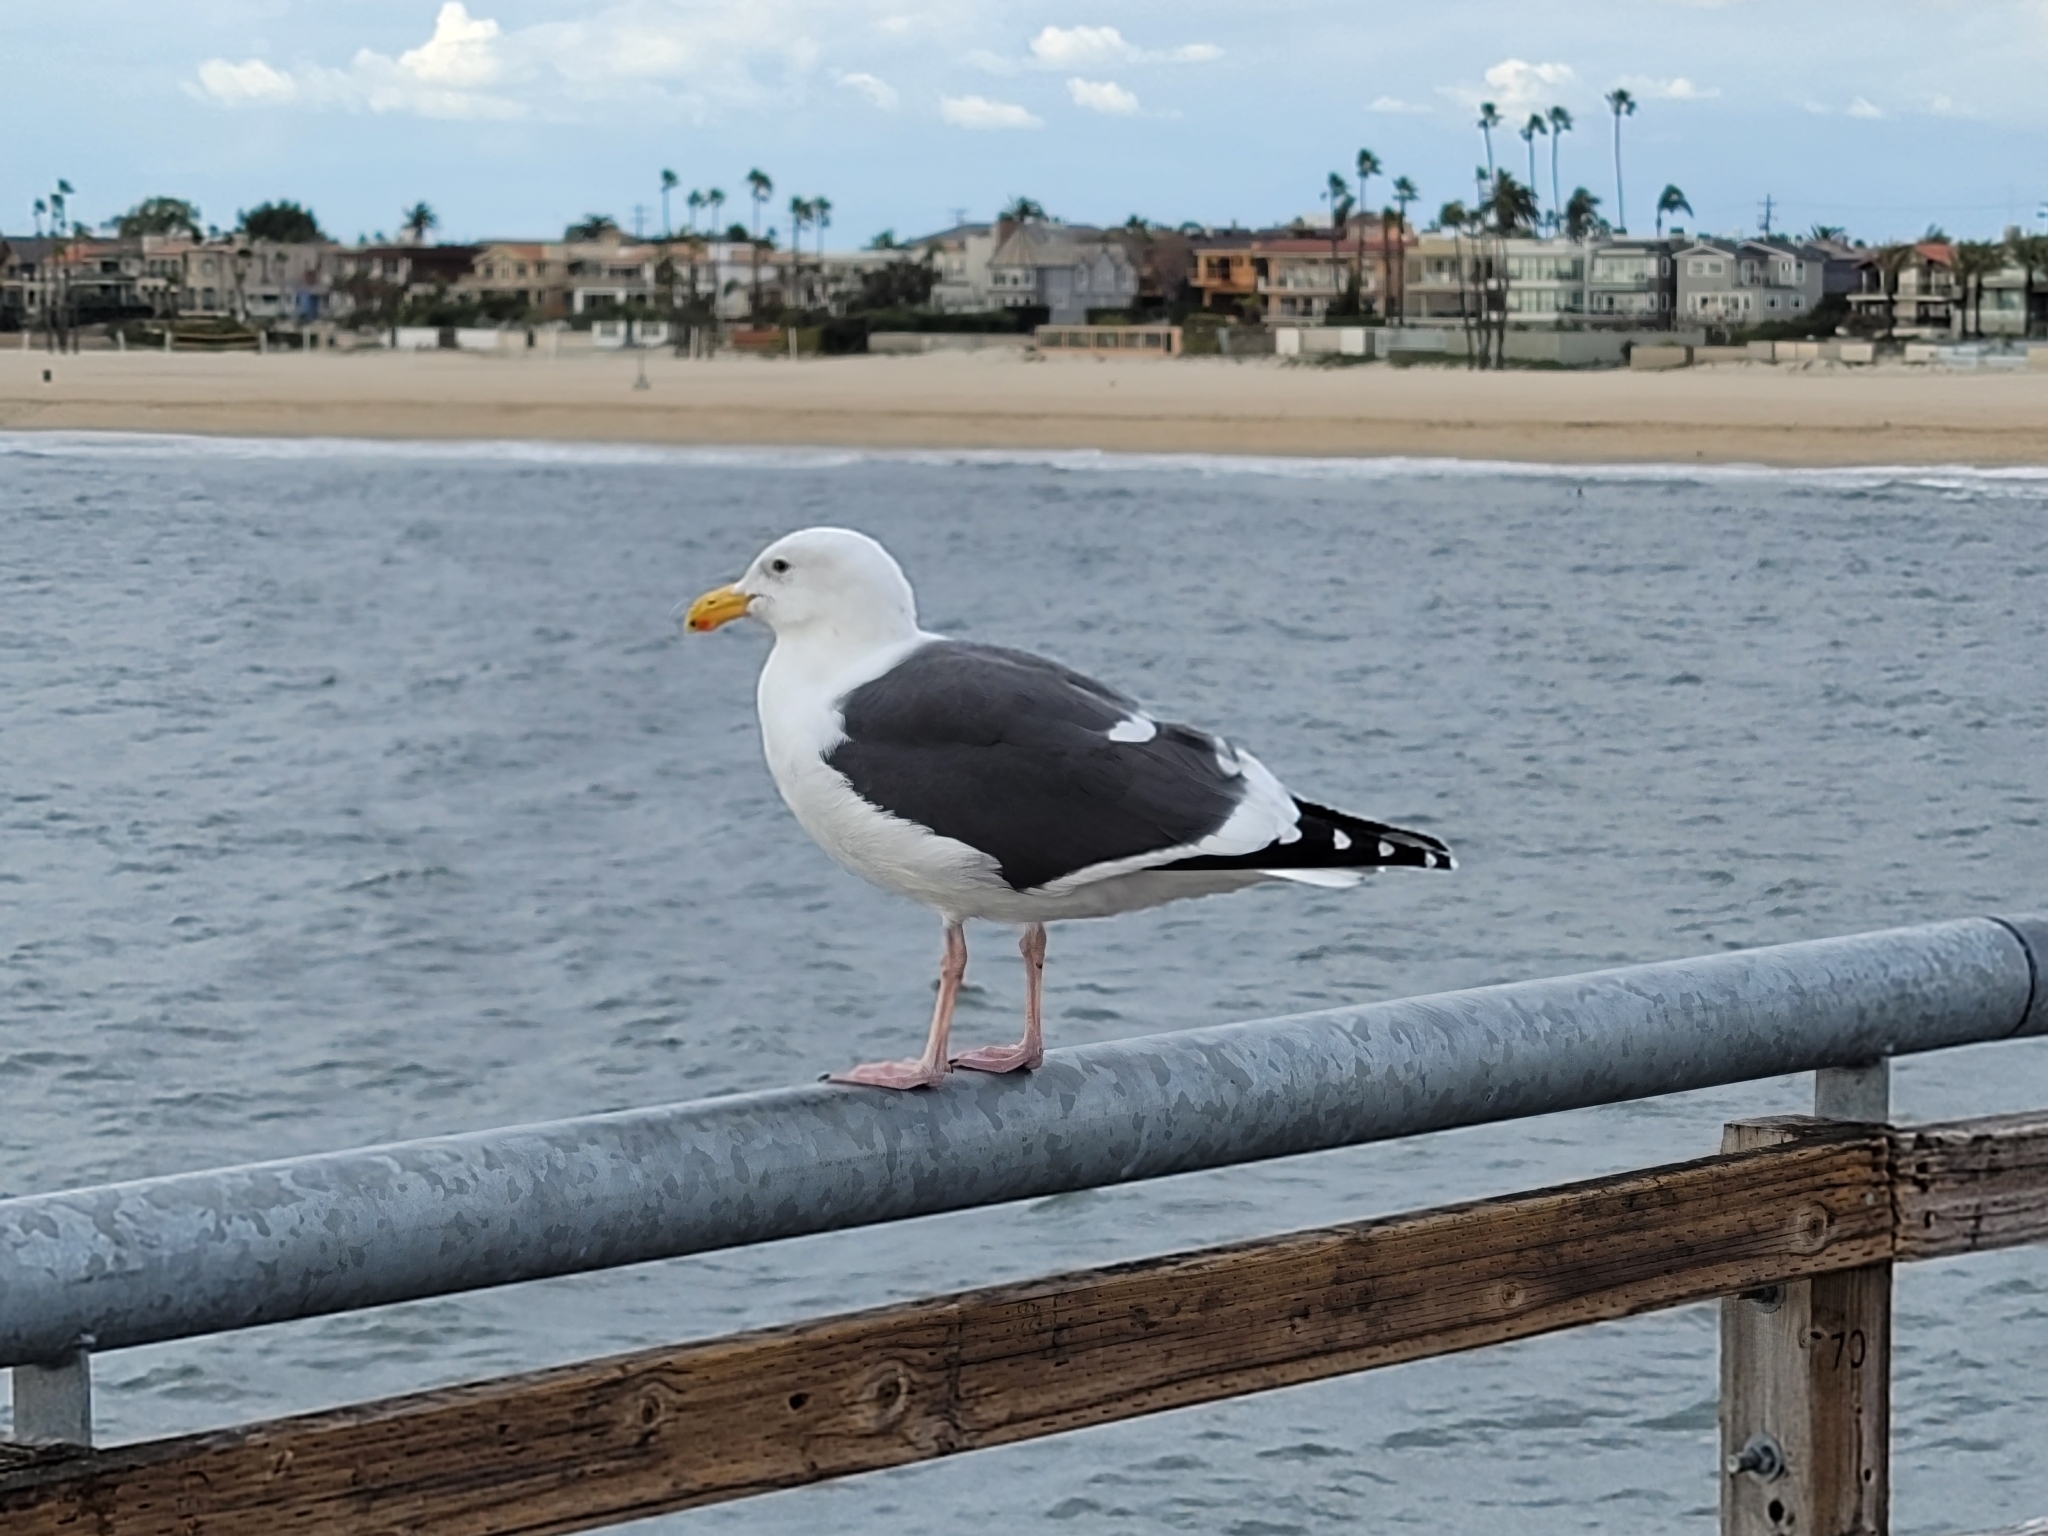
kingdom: Animalia
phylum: Chordata
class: Aves
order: Charadriiformes
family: Laridae
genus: Larus
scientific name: Larus occidentalis
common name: Western gull
